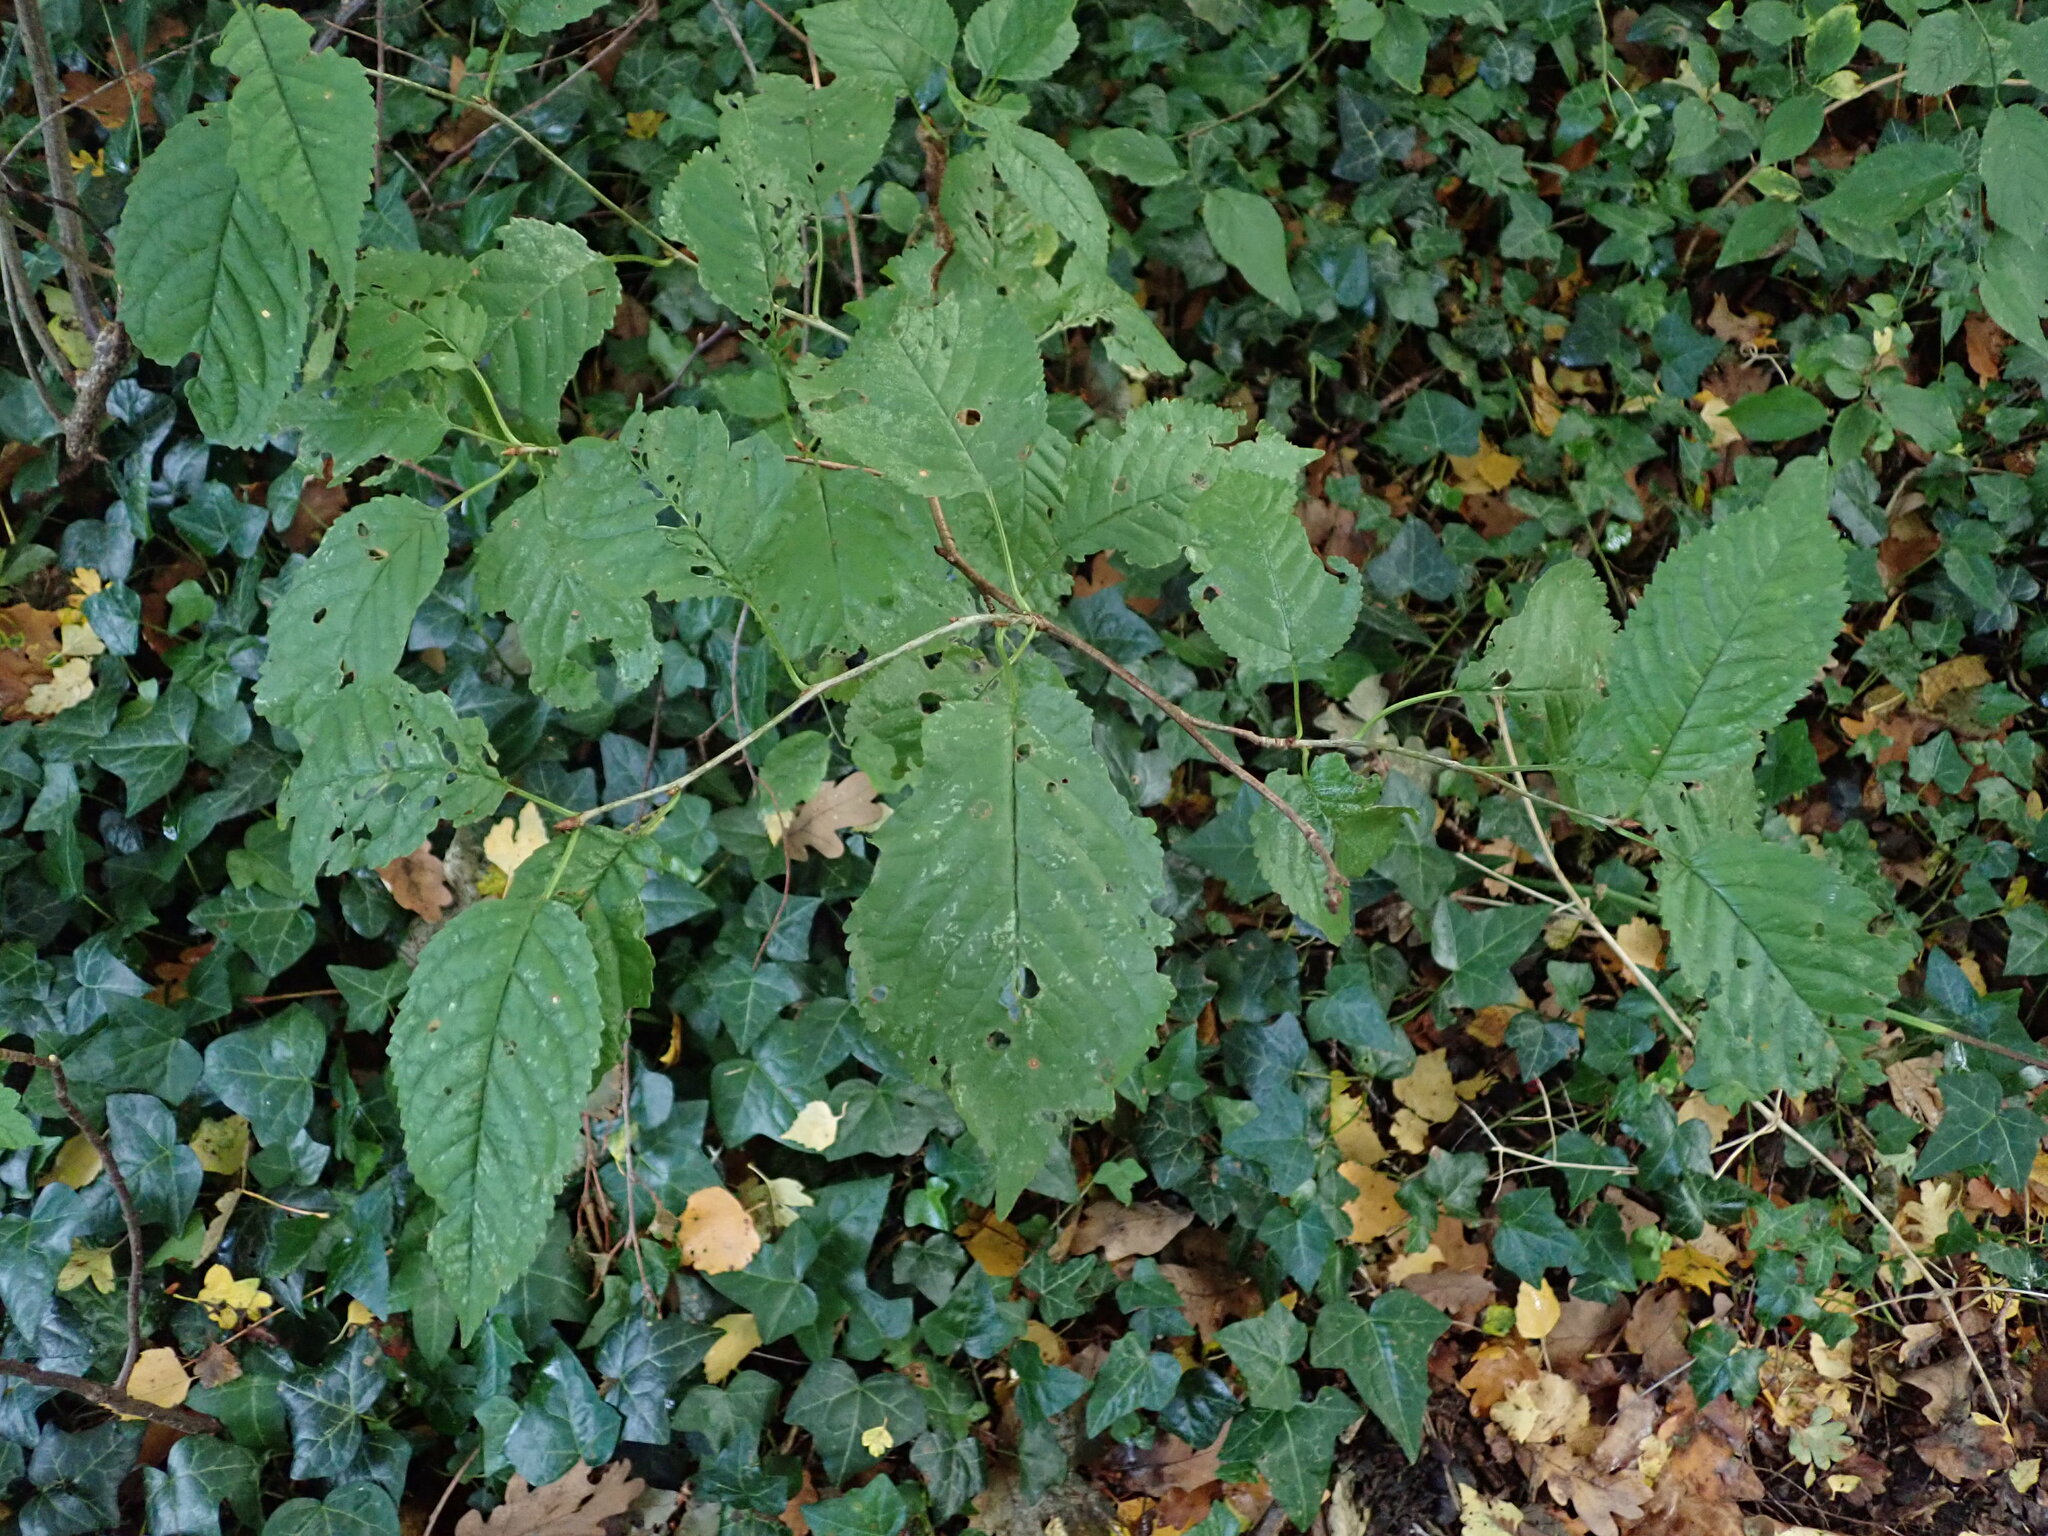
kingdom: Plantae
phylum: Tracheophyta
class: Magnoliopsida
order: Rosales
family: Rosaceae
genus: Prunus
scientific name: Prunus avium
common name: Sweet cherry
